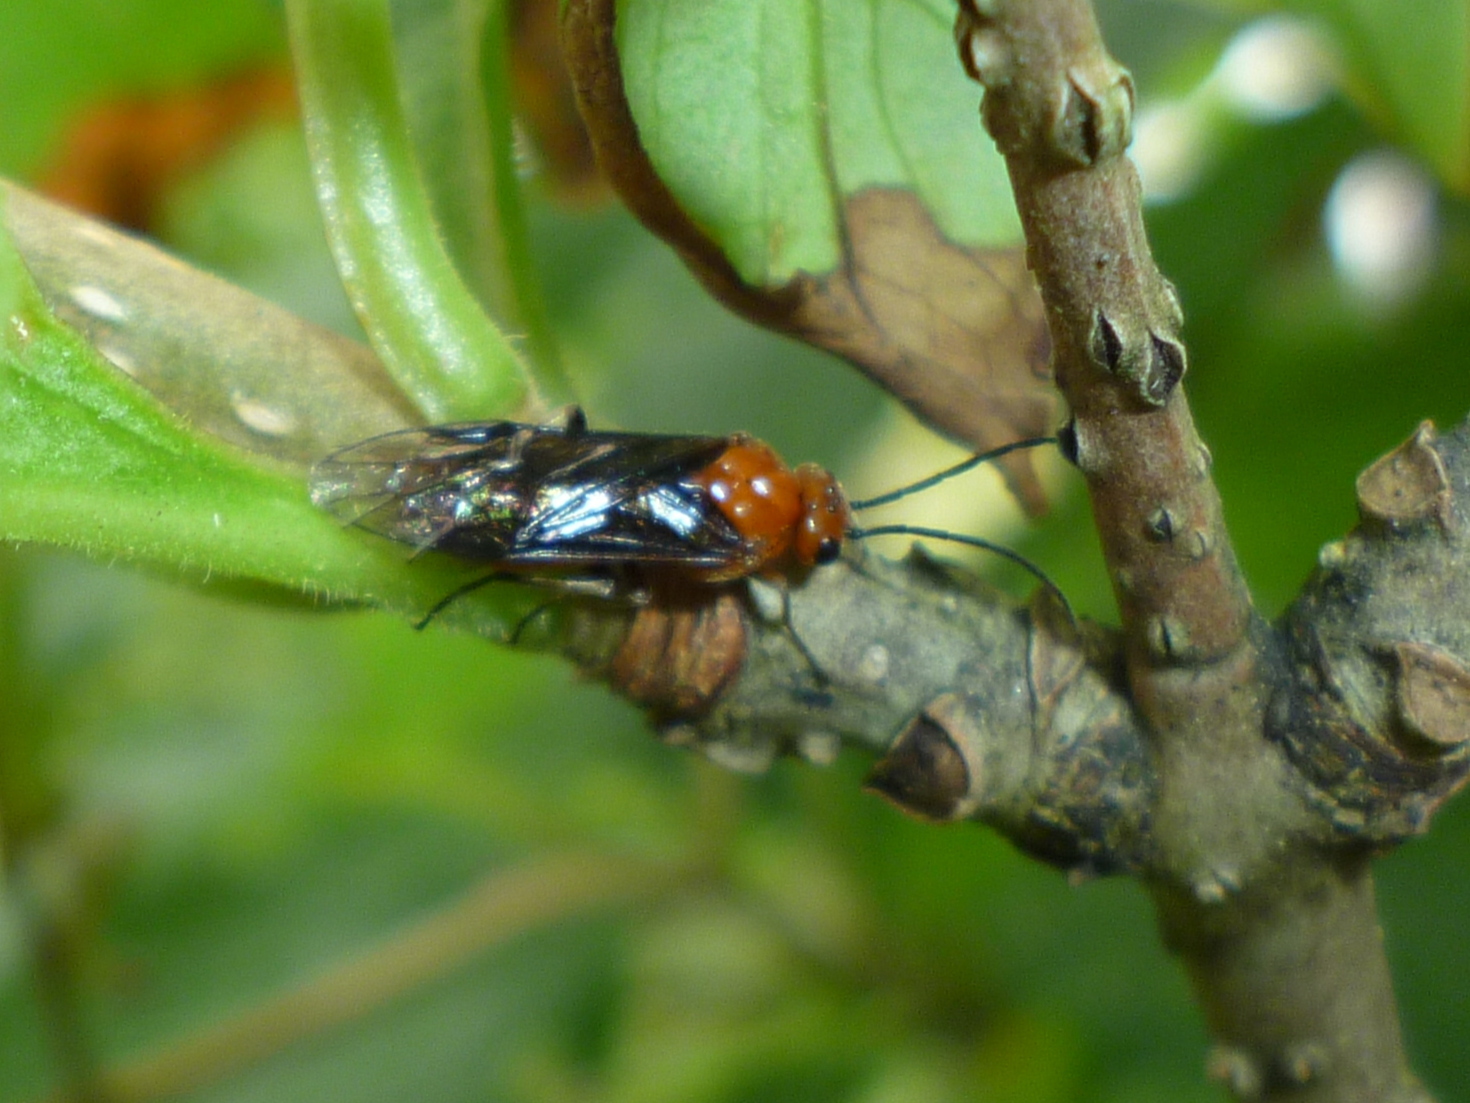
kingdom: Animalia
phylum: Arthropoda
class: Insecta
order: Hymenoptera
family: Tenthredinidae
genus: Hemichroa
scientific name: Hemichroa crocea
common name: Striped alder sawfly
